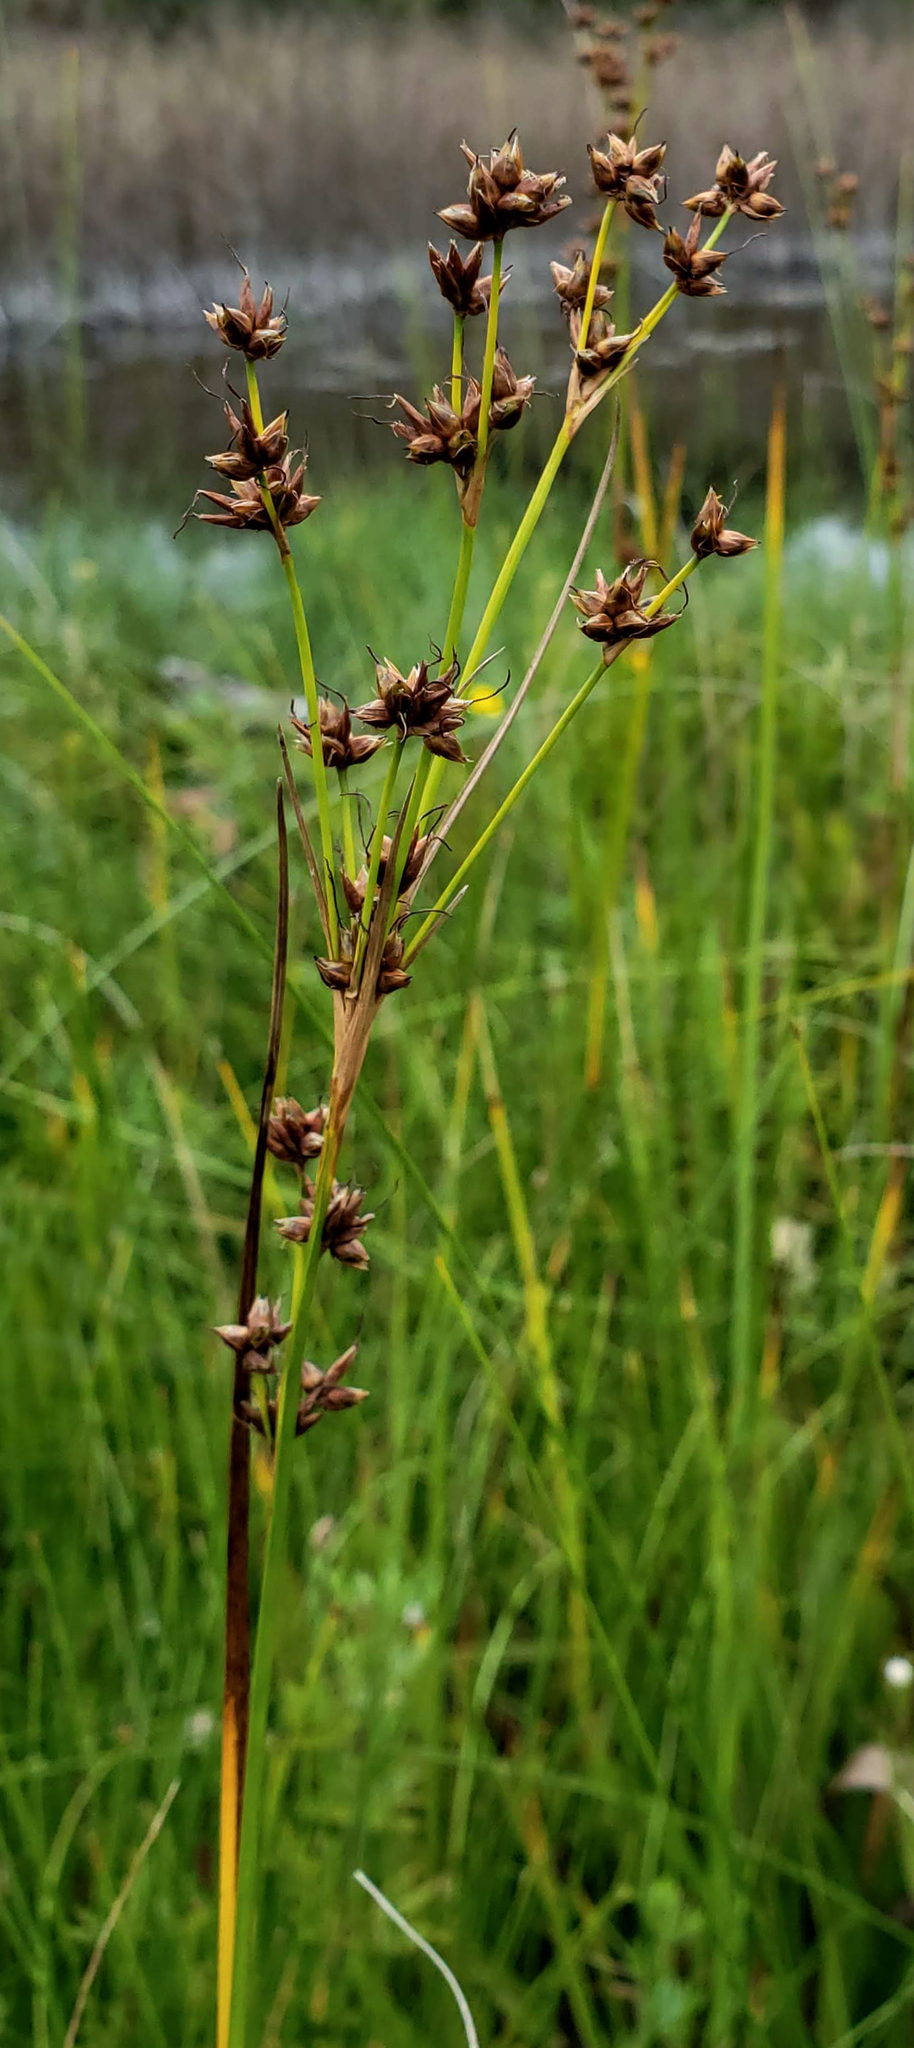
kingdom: Plantae
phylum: Tracheophyta
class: Liliopsida
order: Poales
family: Cyperaceae
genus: Cladium
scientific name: Cladium mariscoides
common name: Smooth sawgrass
